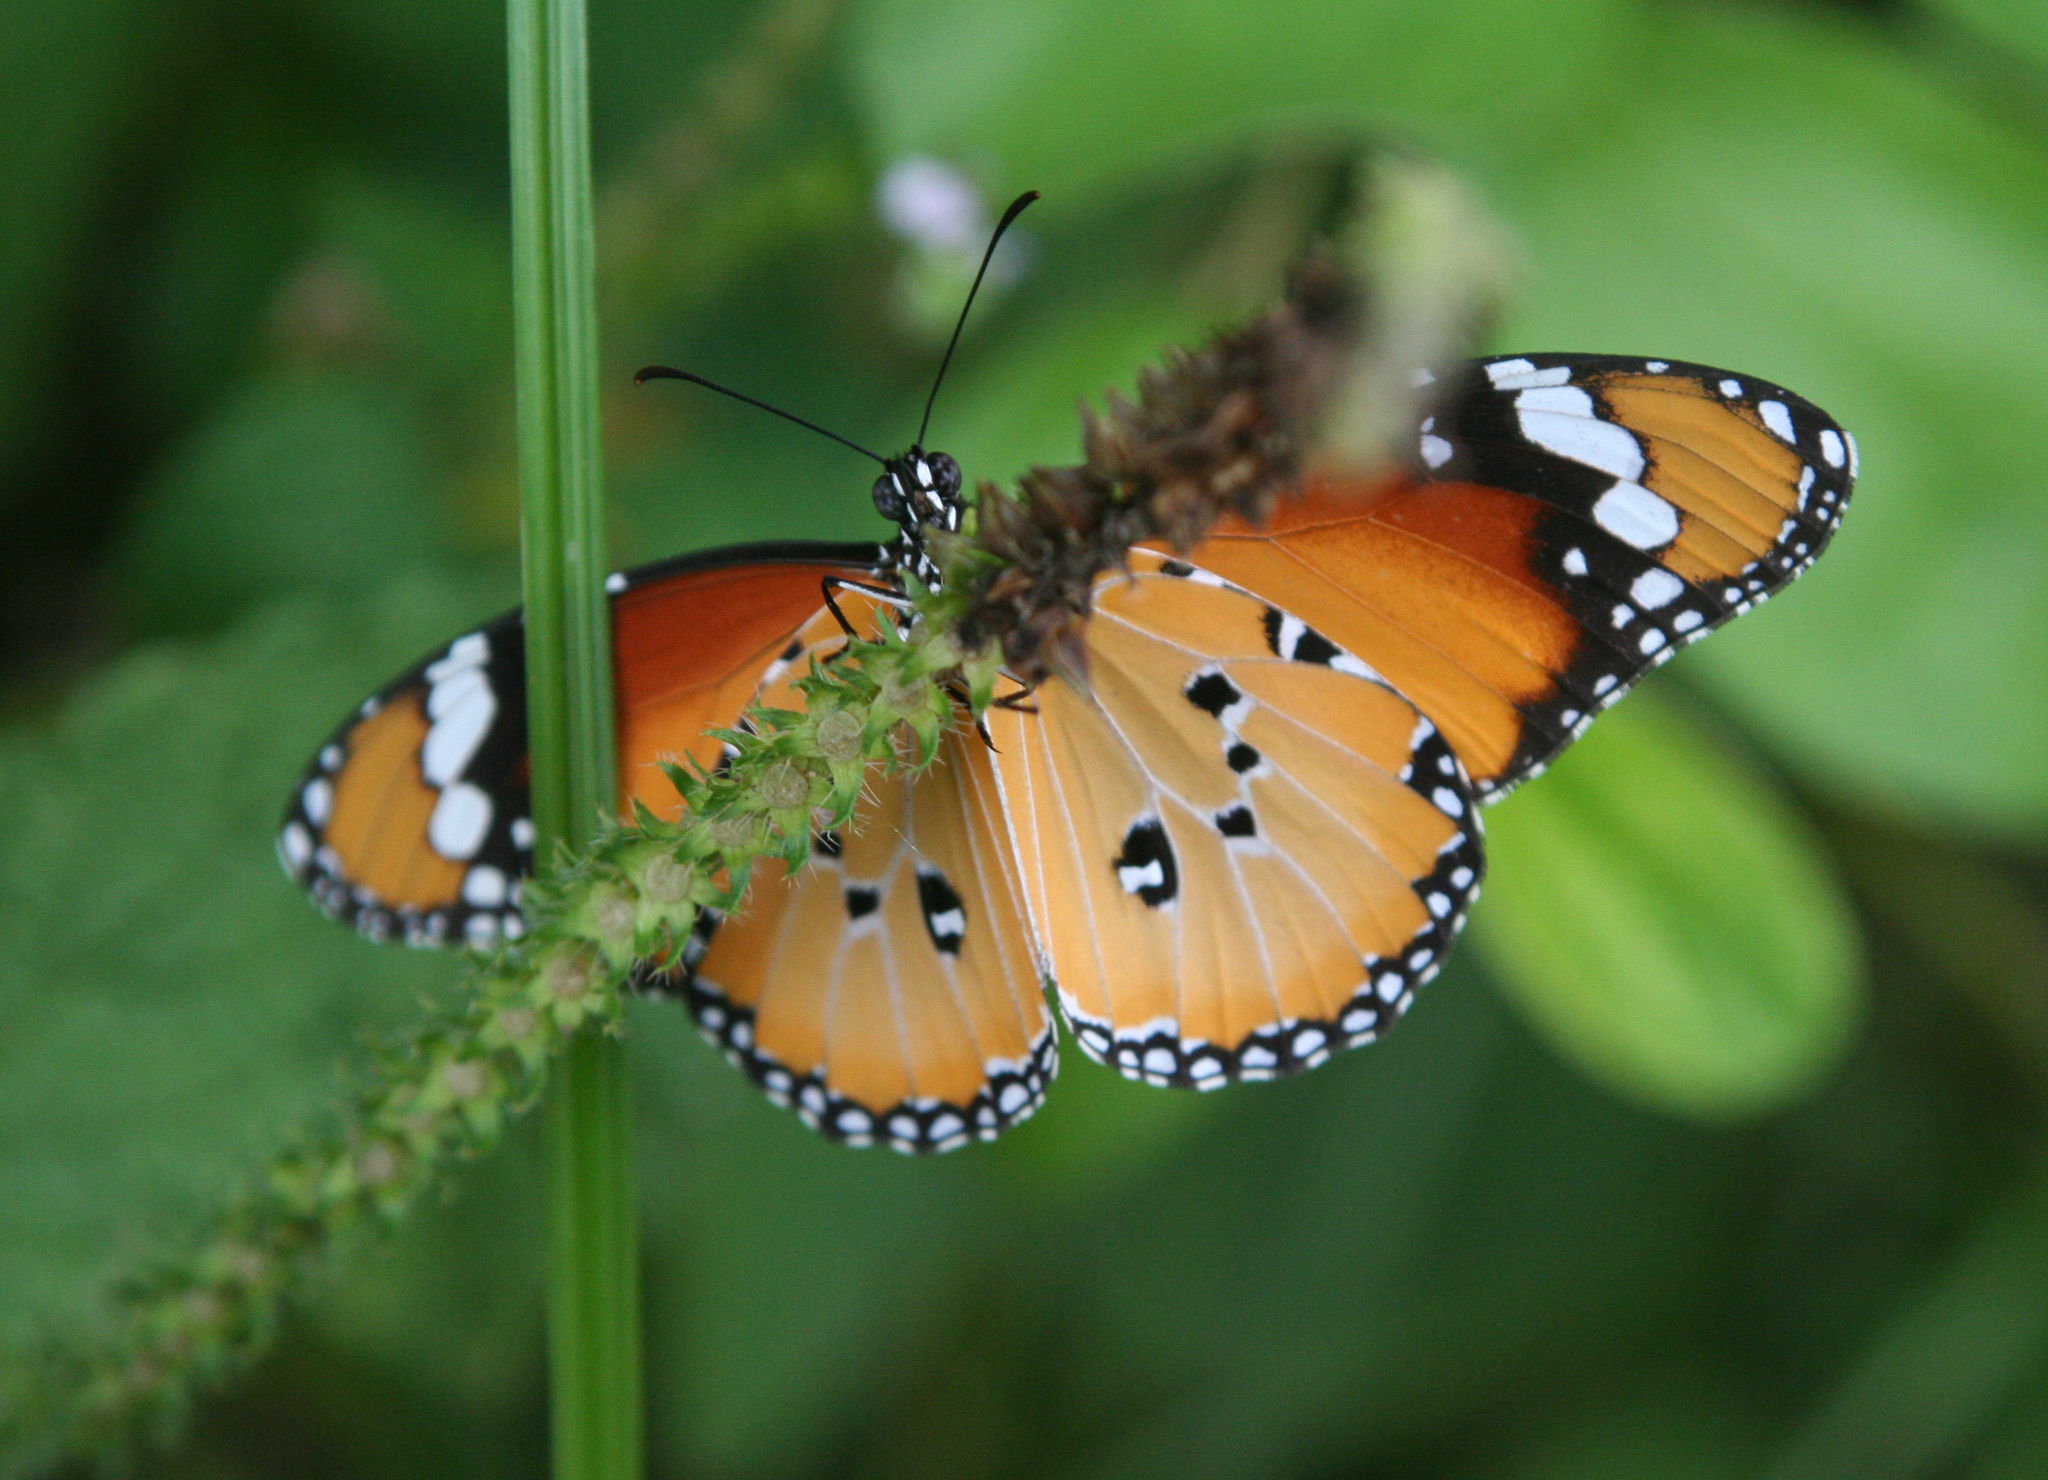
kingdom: Animalia
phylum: Arthropoda
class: Insecta
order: Lepidoptera
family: Nymphalidae
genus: Danaus
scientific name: Danaus chrysippus
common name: Plain tiger
